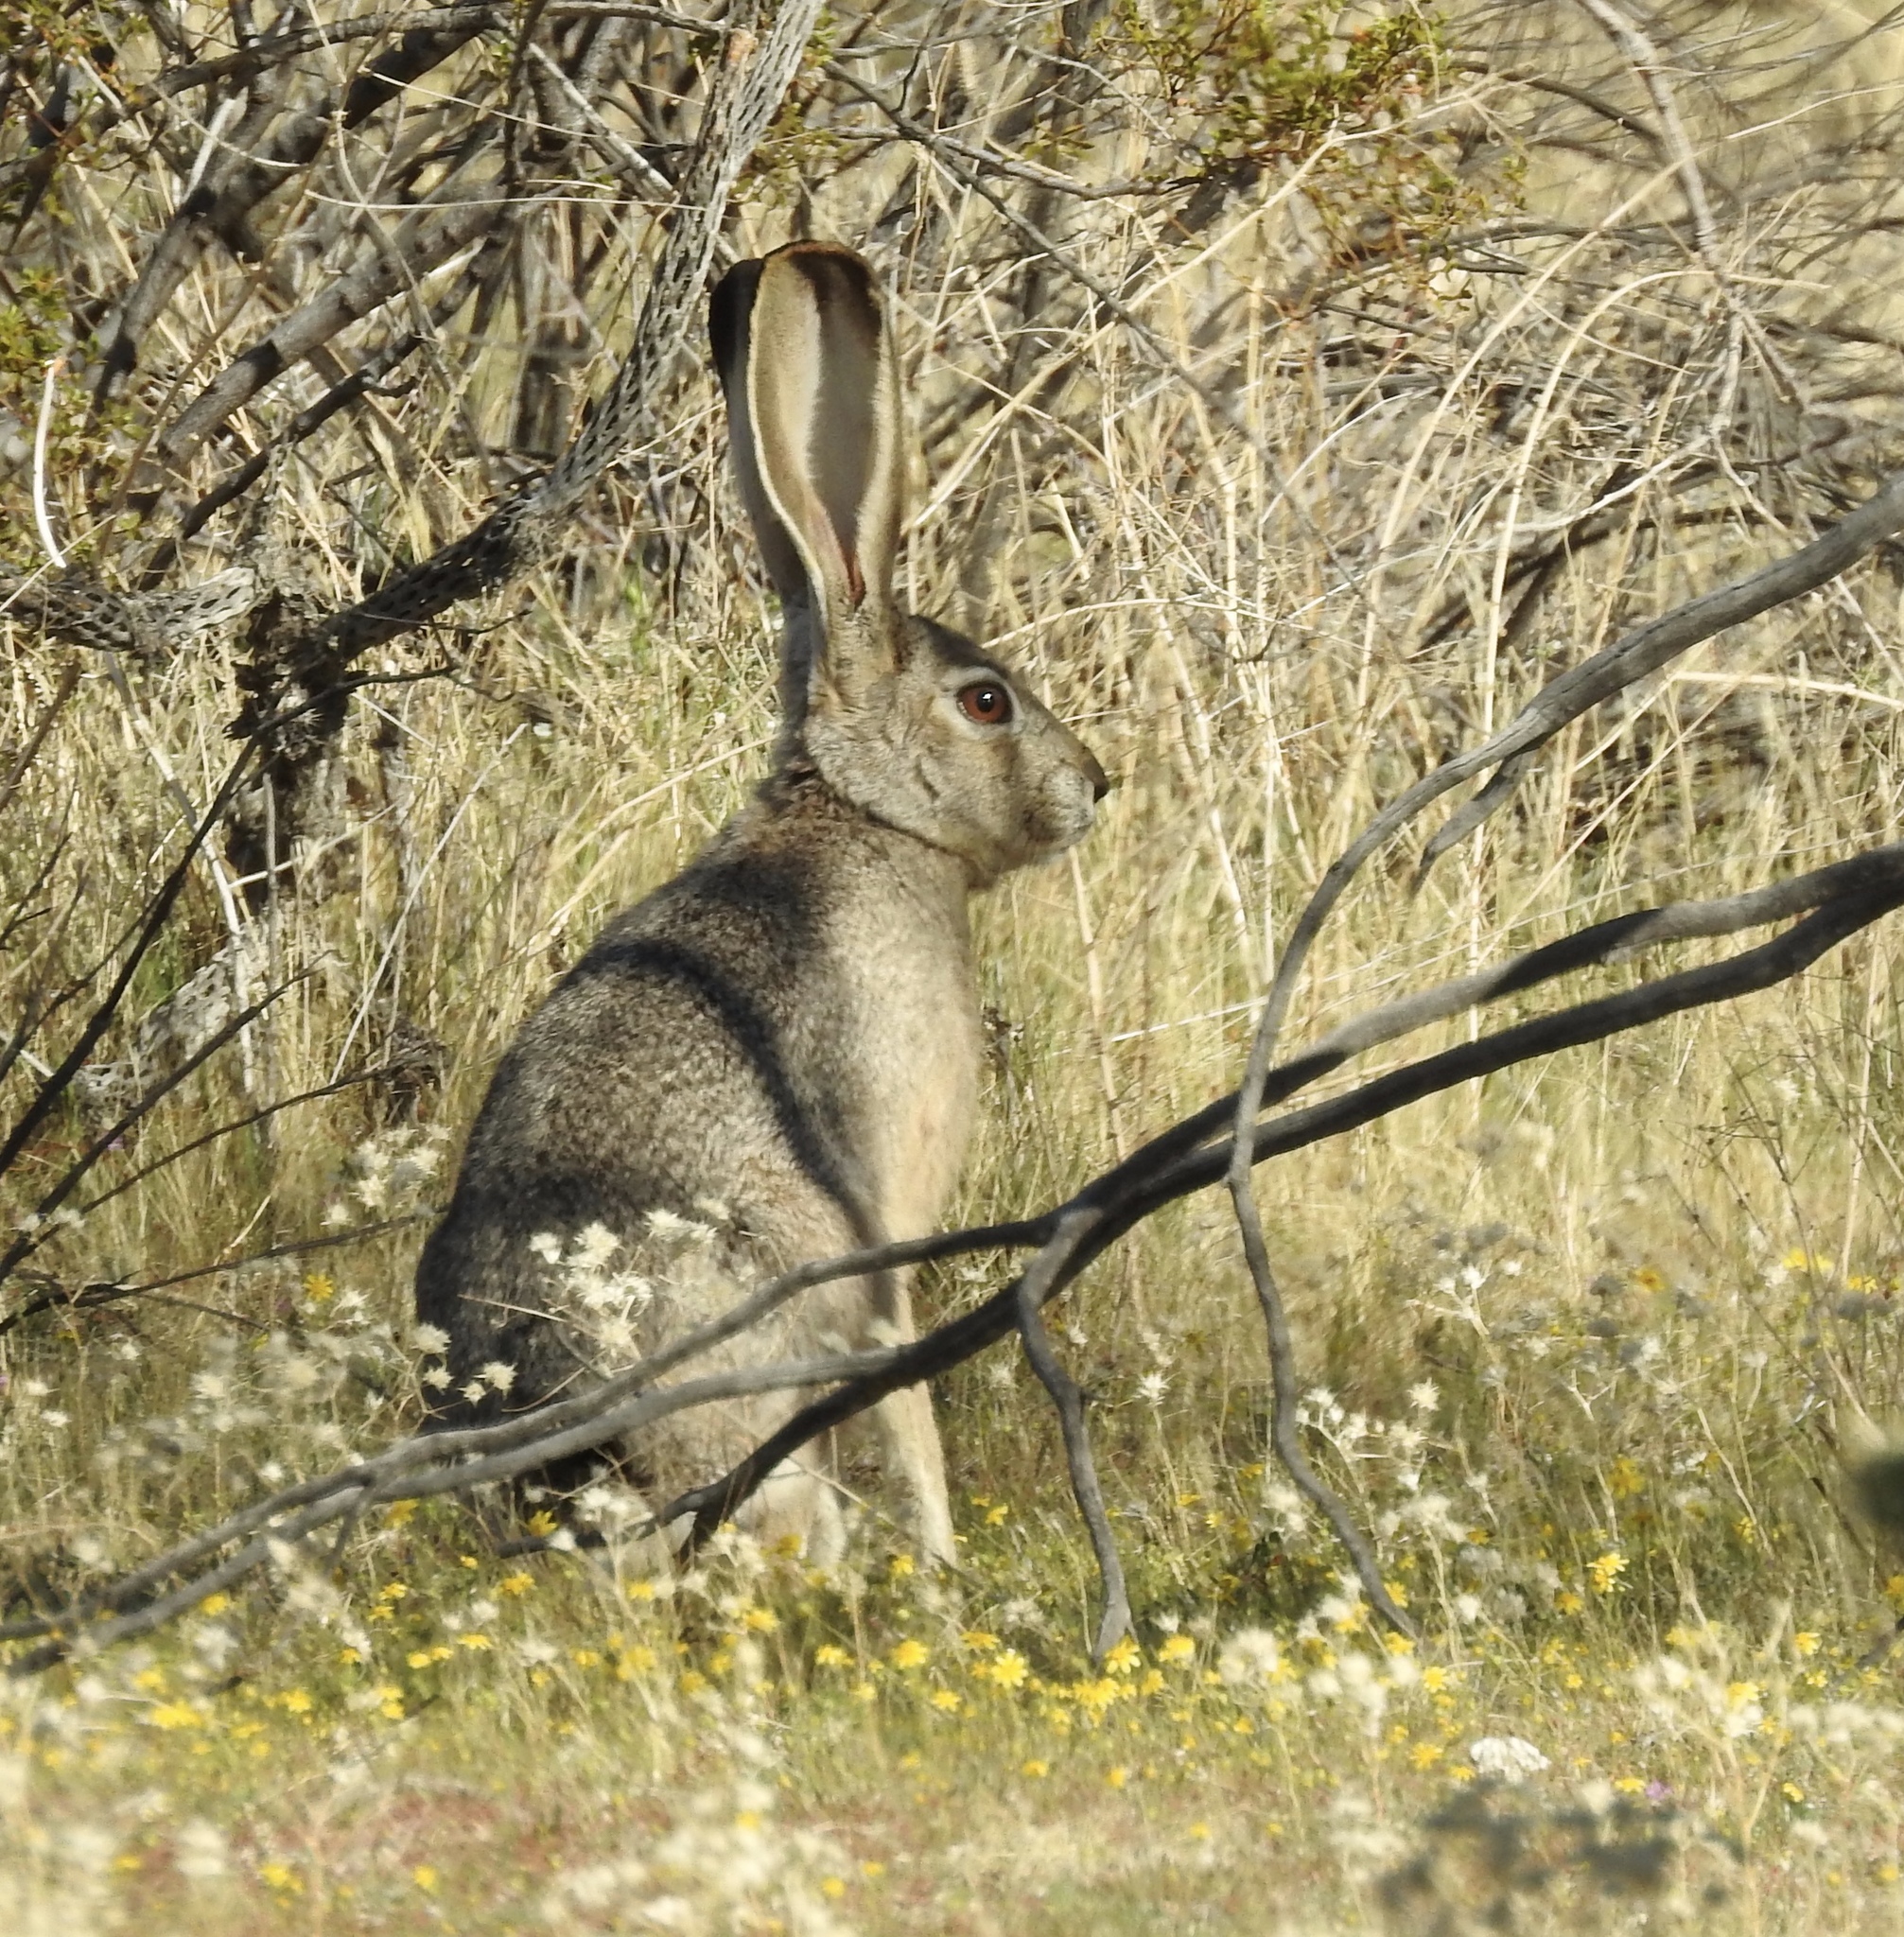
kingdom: Animalia
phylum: Chordata
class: Mammalia
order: Lagomorpha
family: Leporidae
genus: Lepus
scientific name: Lepus californicus
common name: Black-tailed jackrabbit
